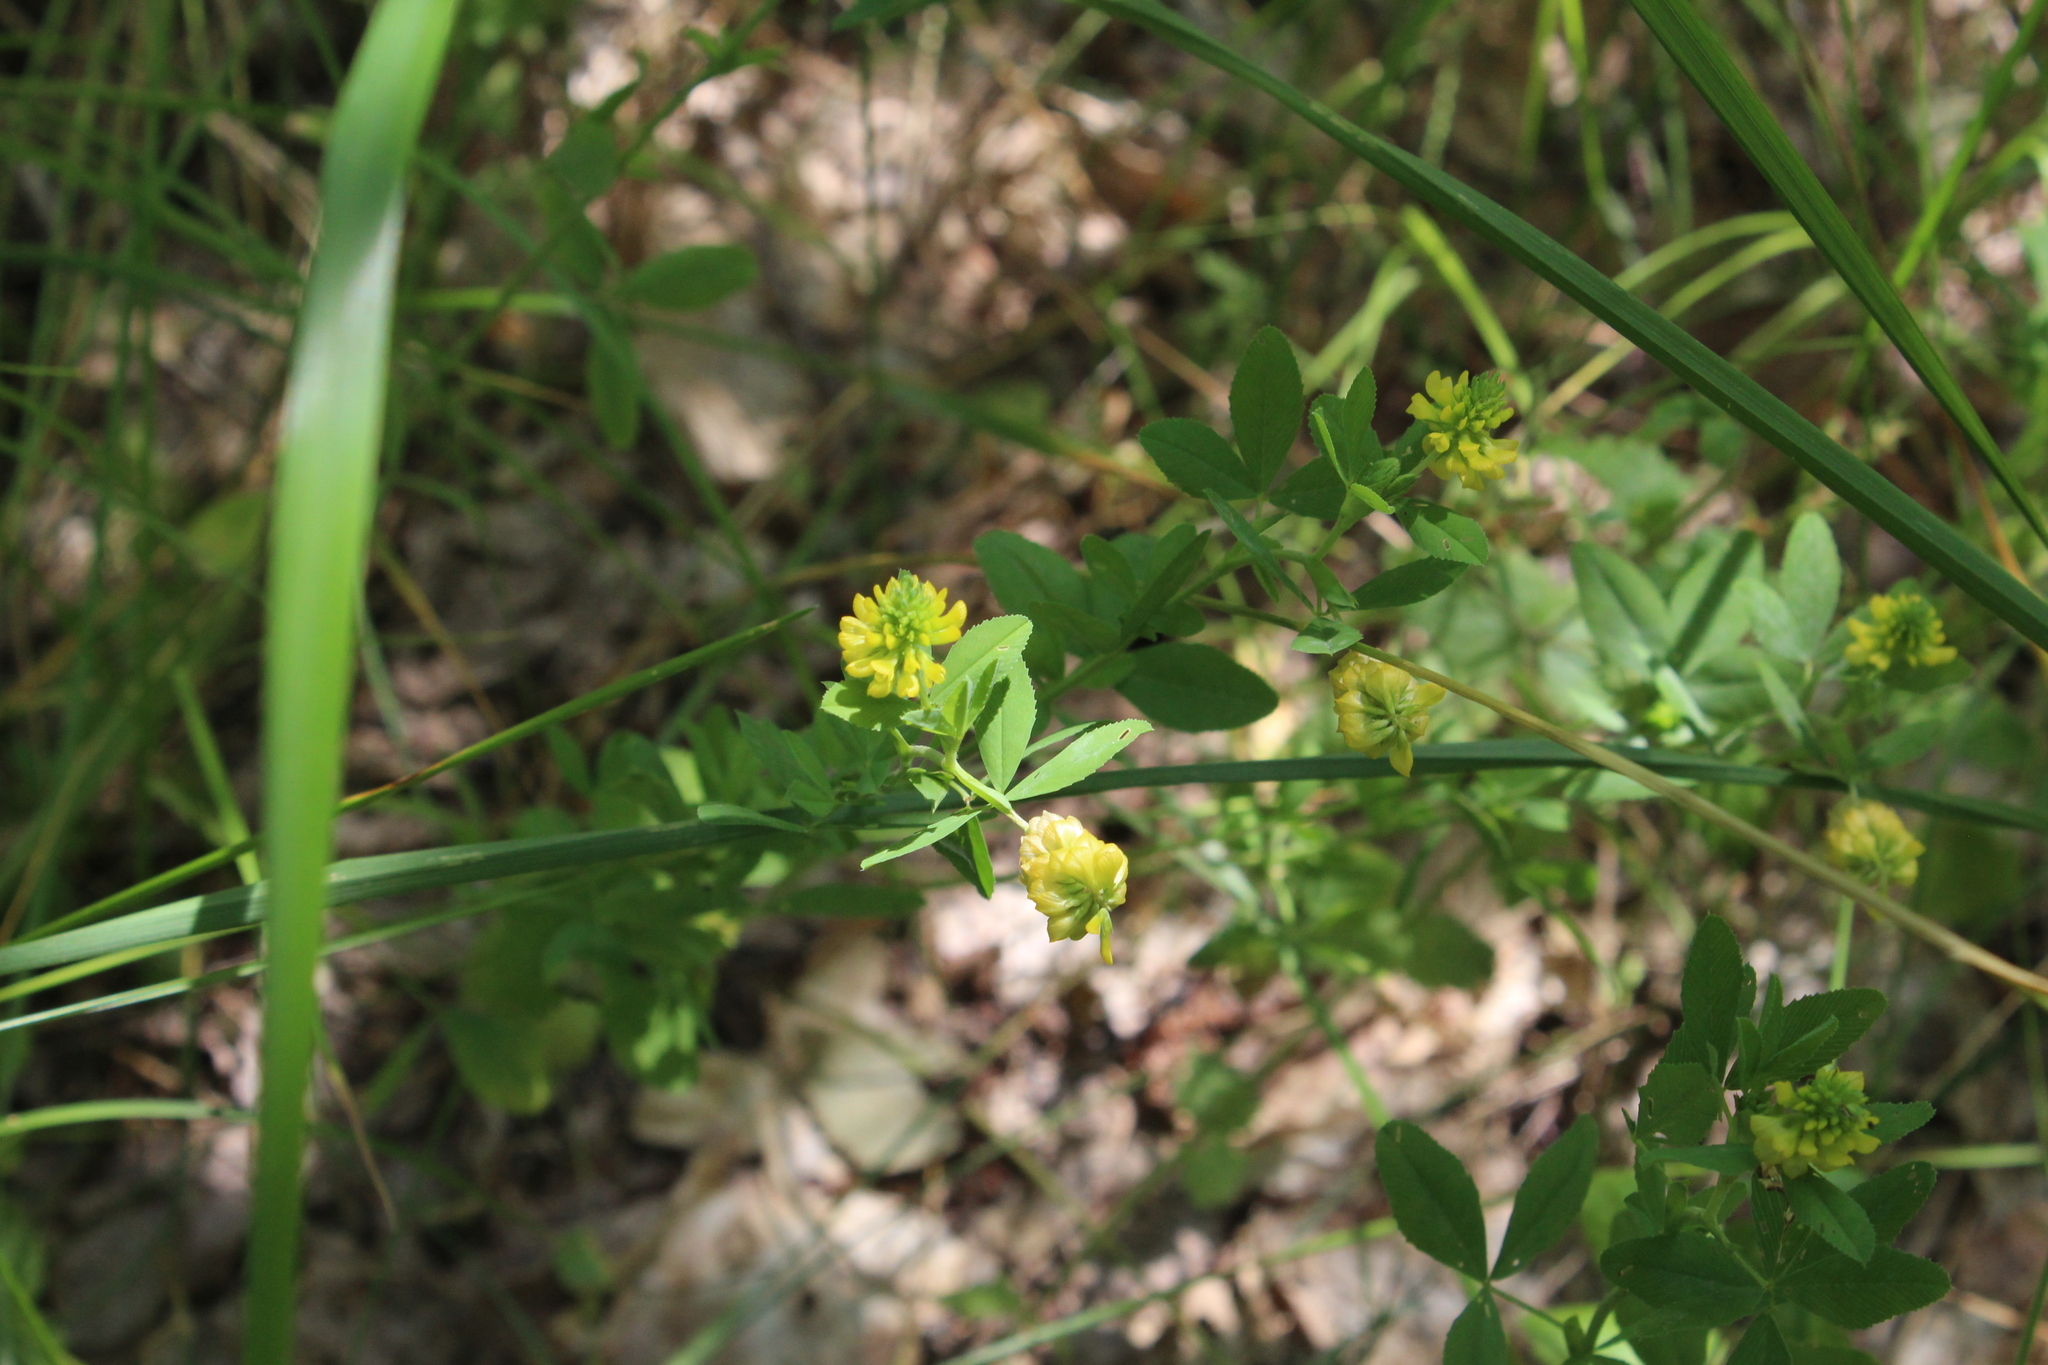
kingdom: Plantae
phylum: Tracheophyta
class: Magnoliopsida
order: Fabales
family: Fabaceae
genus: Trifolium
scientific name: Trifolium aureum
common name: Golden clover
